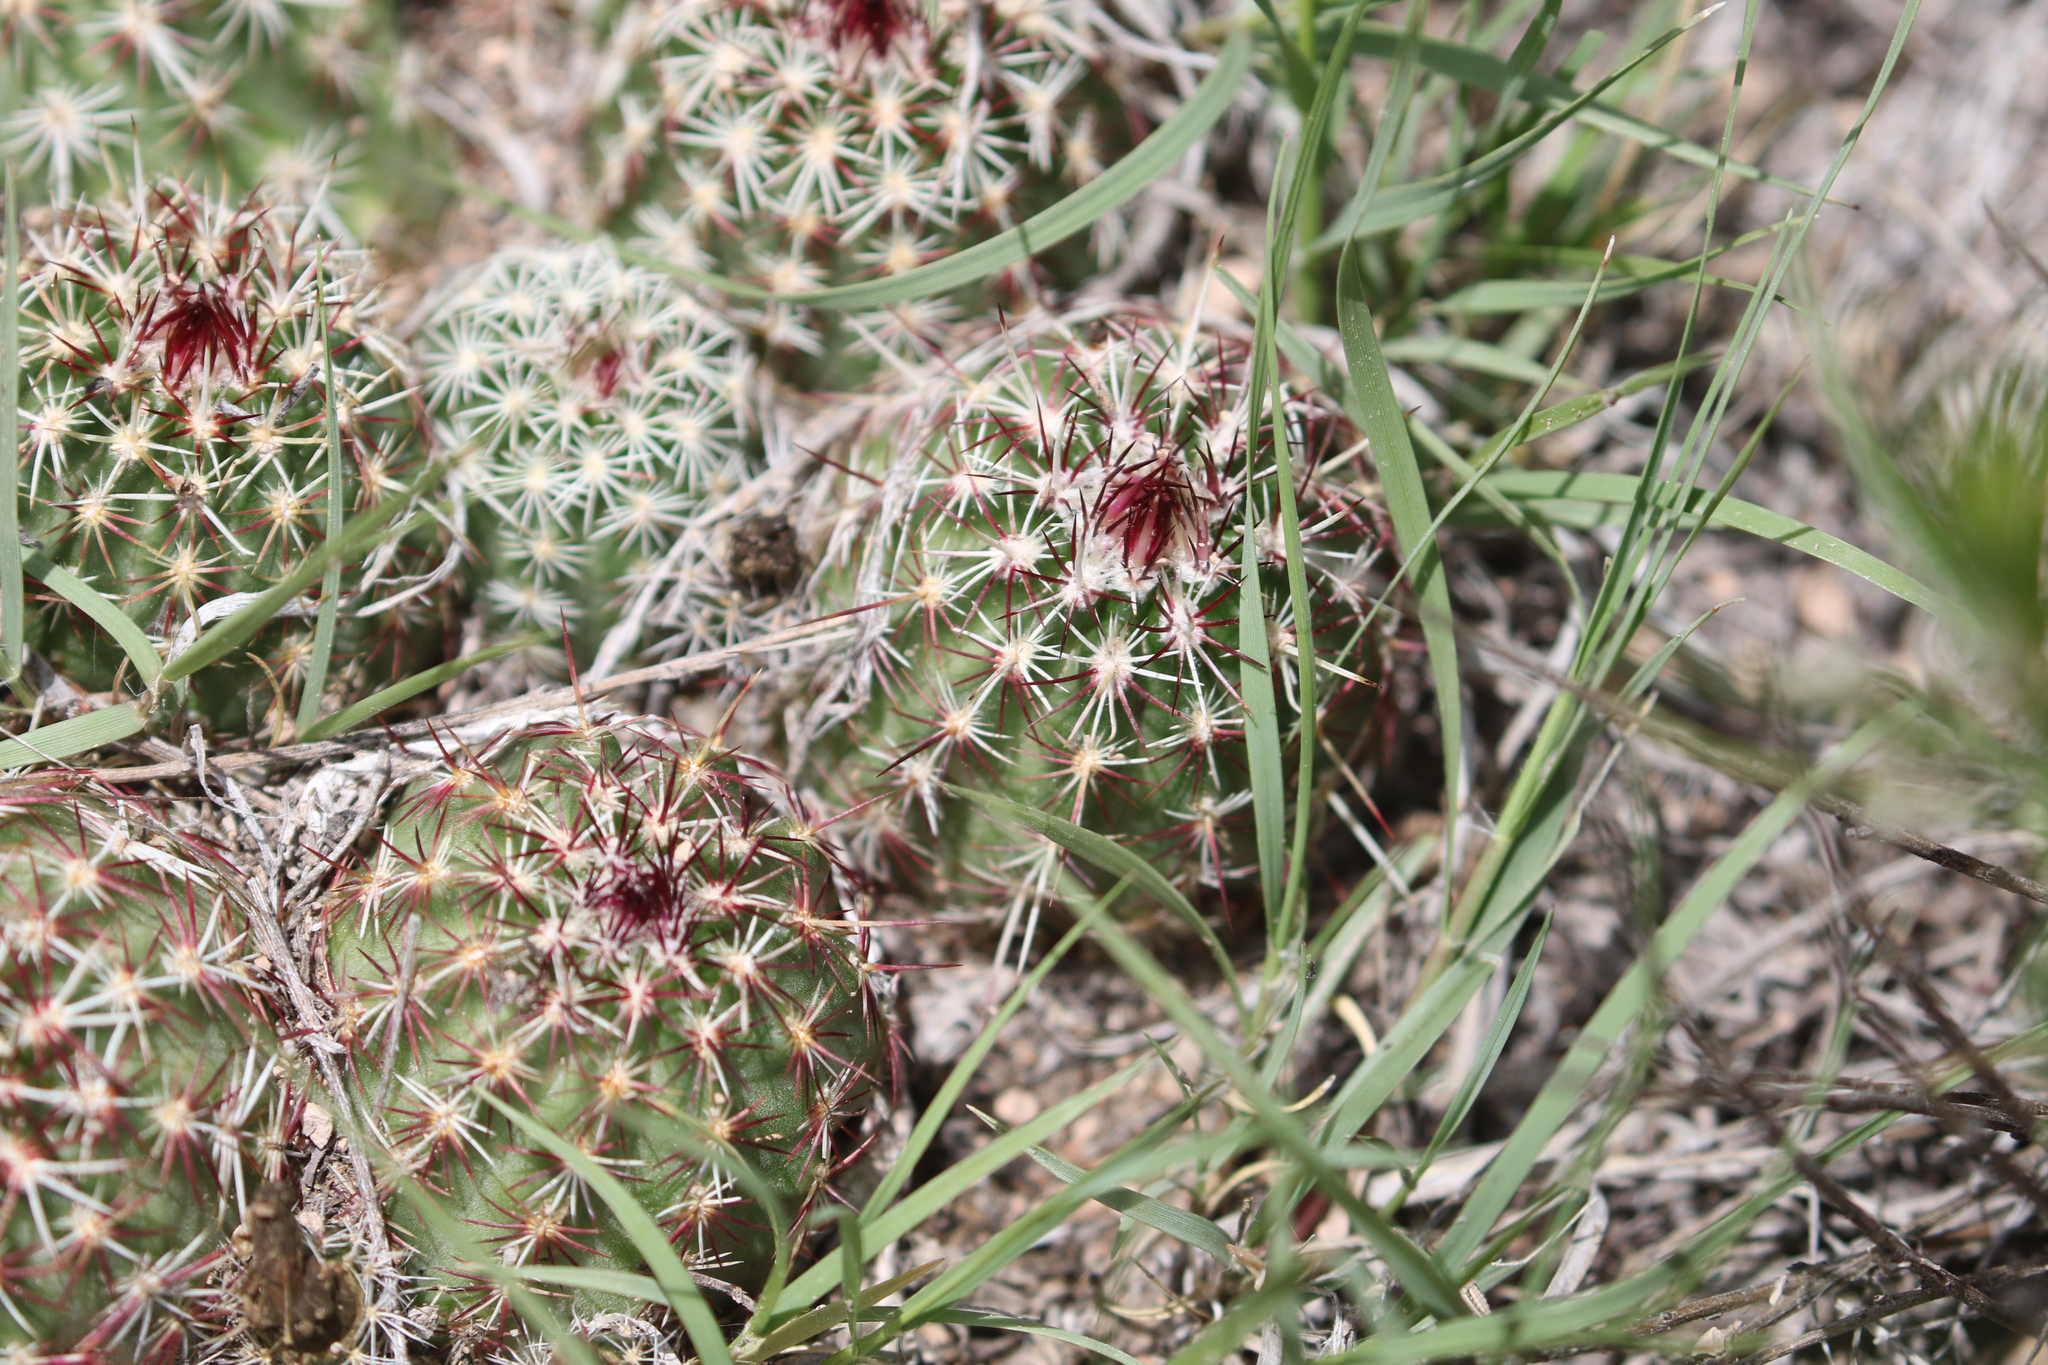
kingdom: Plantae
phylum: Tracheophyta
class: Magnoliopsida
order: Caryophyllales
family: Cactaceae
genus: Echinocereus
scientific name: Echinocereus viridiflorus
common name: Nylon hedgehog cactus
